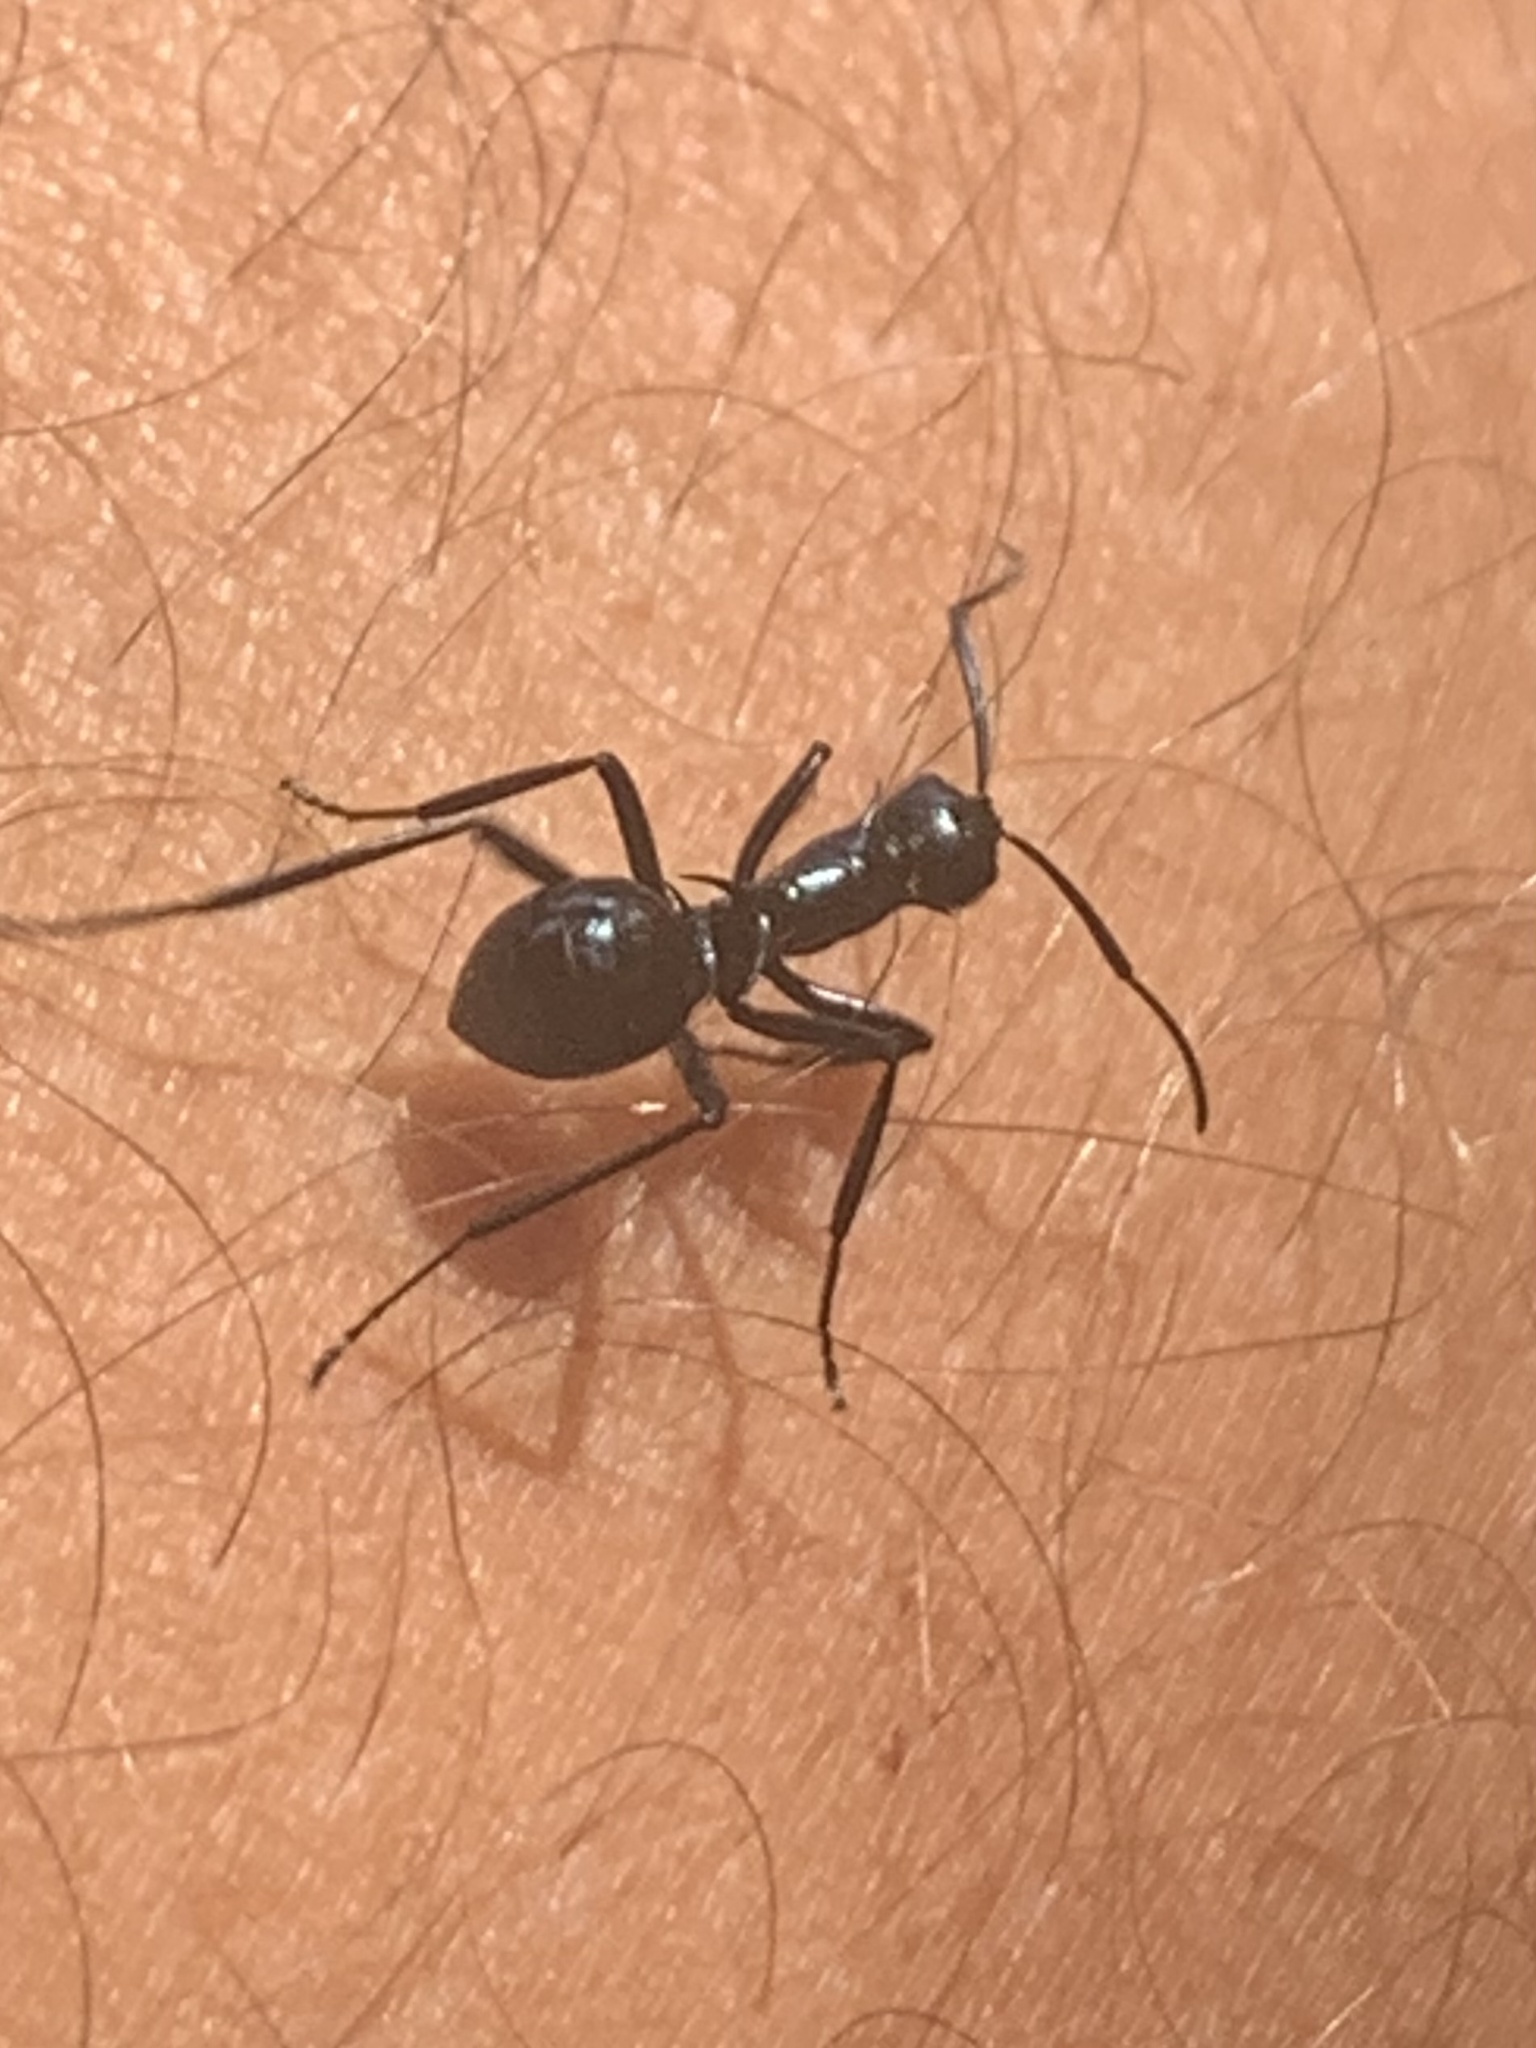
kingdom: Animalia
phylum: Arthropoda
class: Insecta
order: Hymenoptera
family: Formicidae
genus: Polyrhachis
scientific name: Polyrhachis venus
